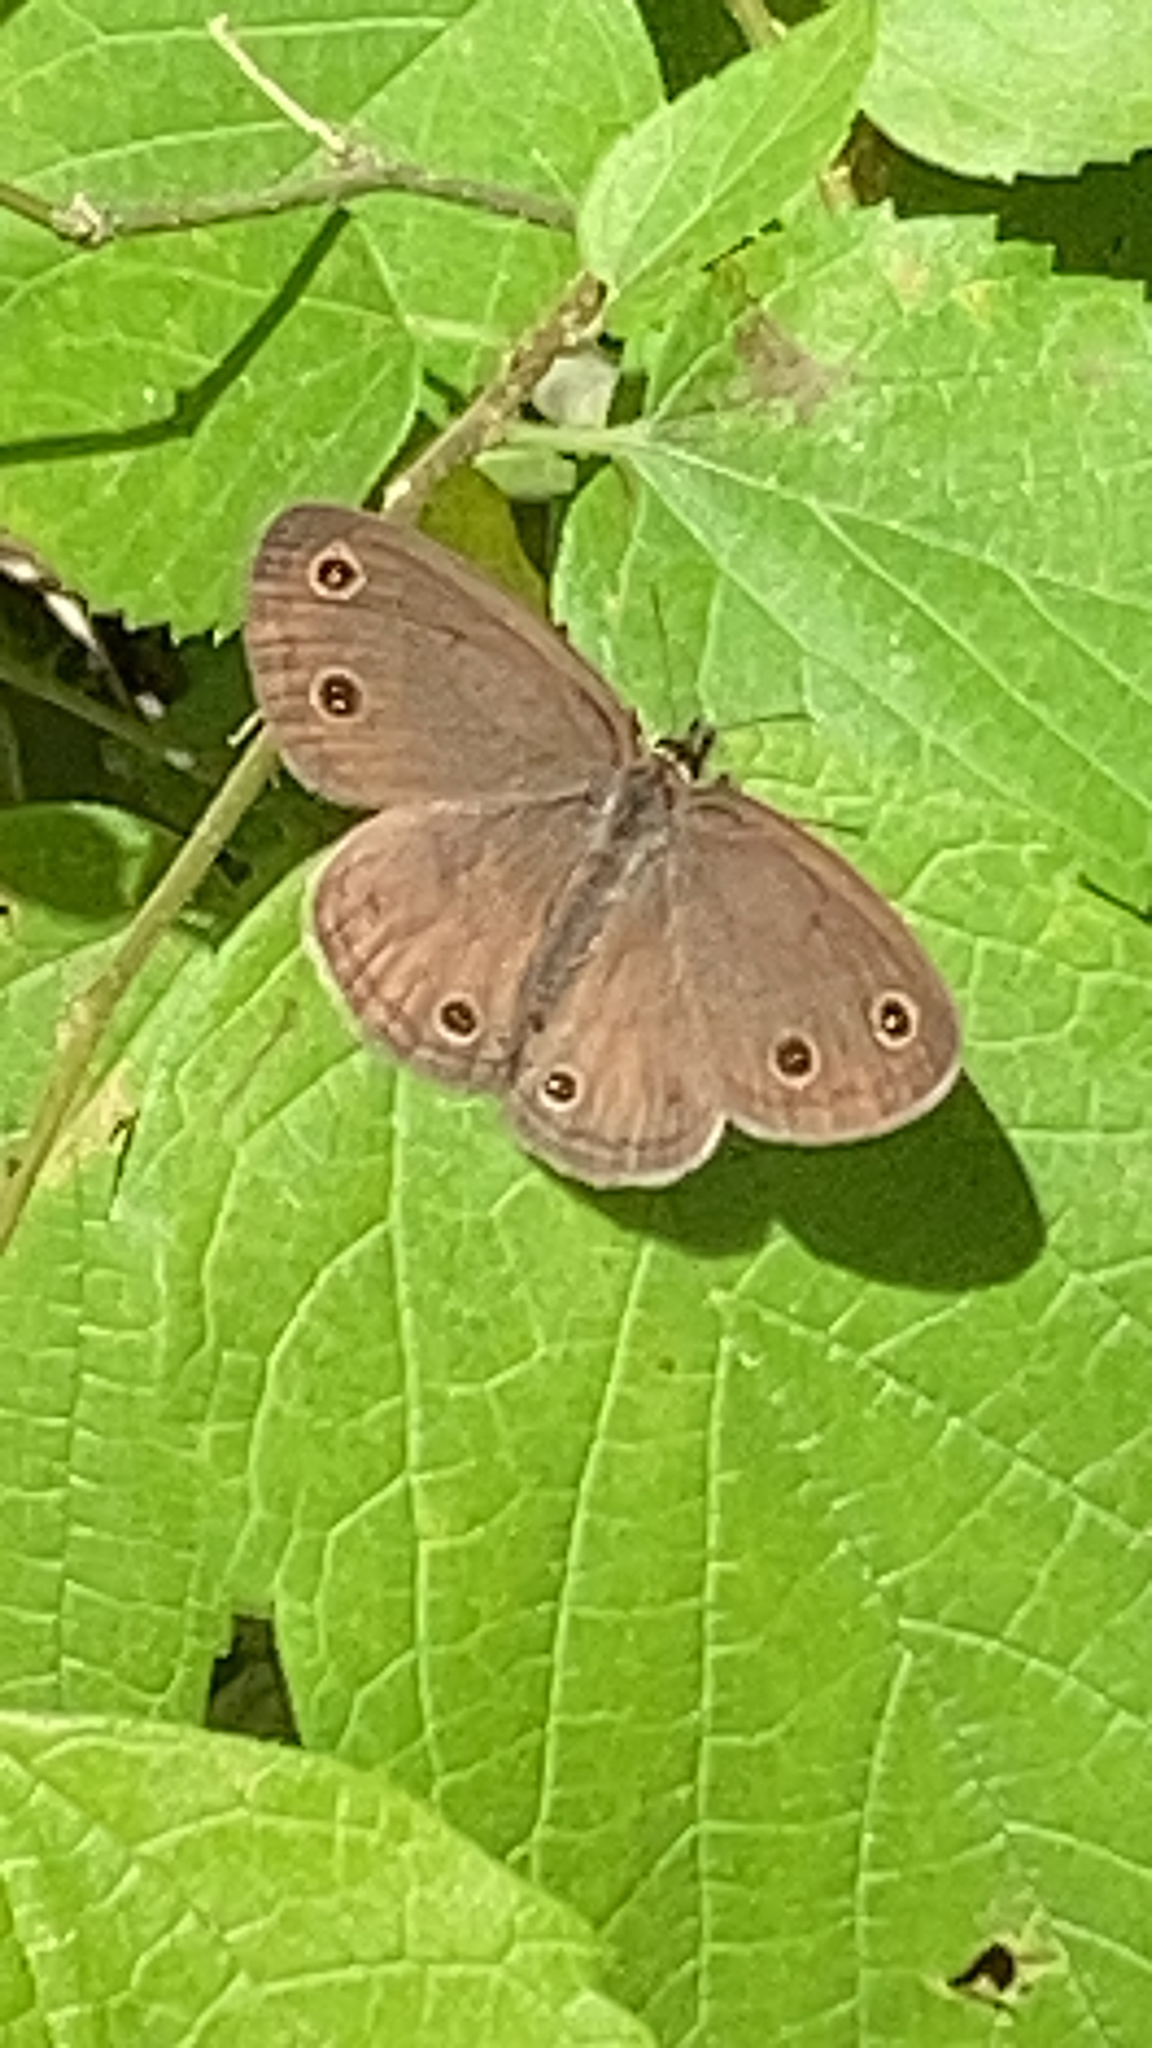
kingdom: Animalia
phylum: Arthropoda
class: Insecta
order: Lepidoptera
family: Nymphalidae
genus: Euptychia
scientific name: Euptychia cymela
